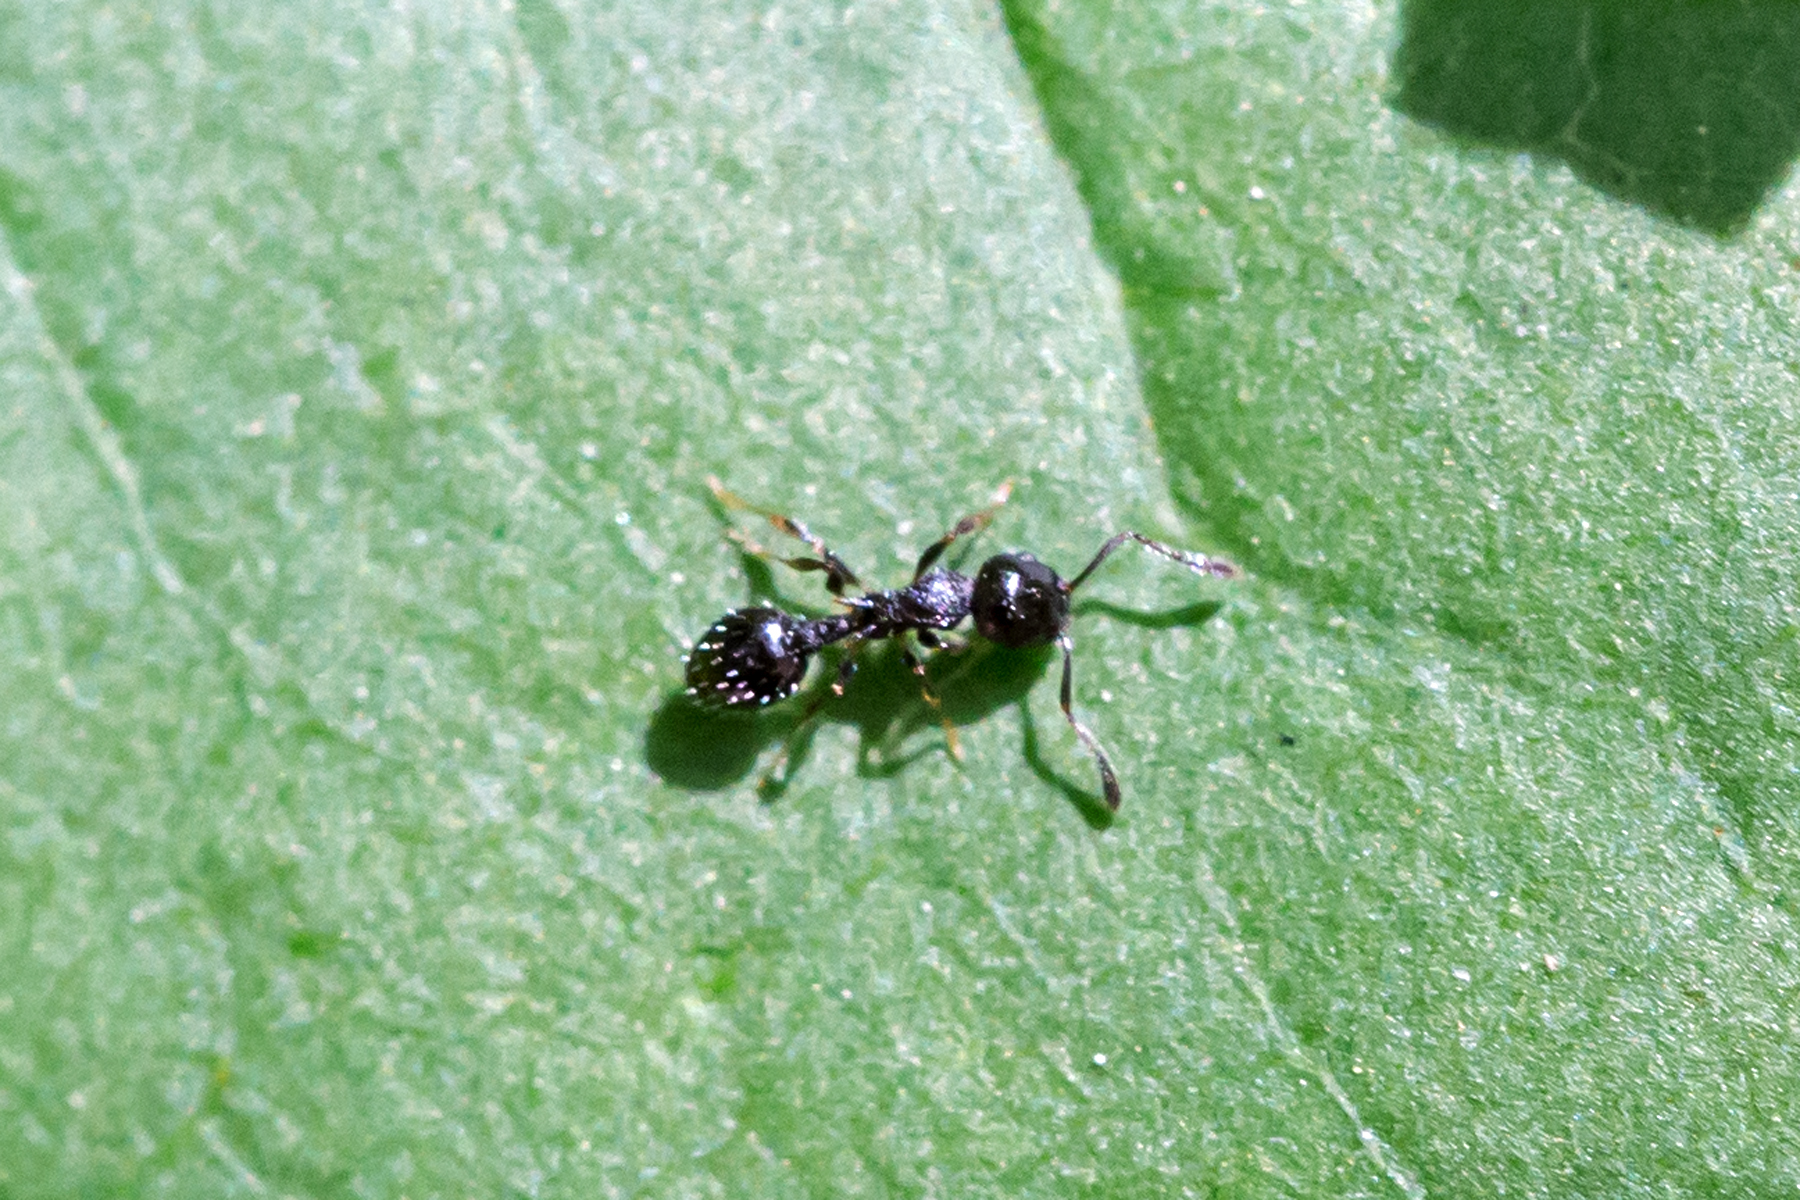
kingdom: Animalia
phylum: Arthropoda
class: Insecta
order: Hymenoptera
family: Formicidae
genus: Temnothorax
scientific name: Temnothorax longispinosus
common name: Long-spined acorn ant
